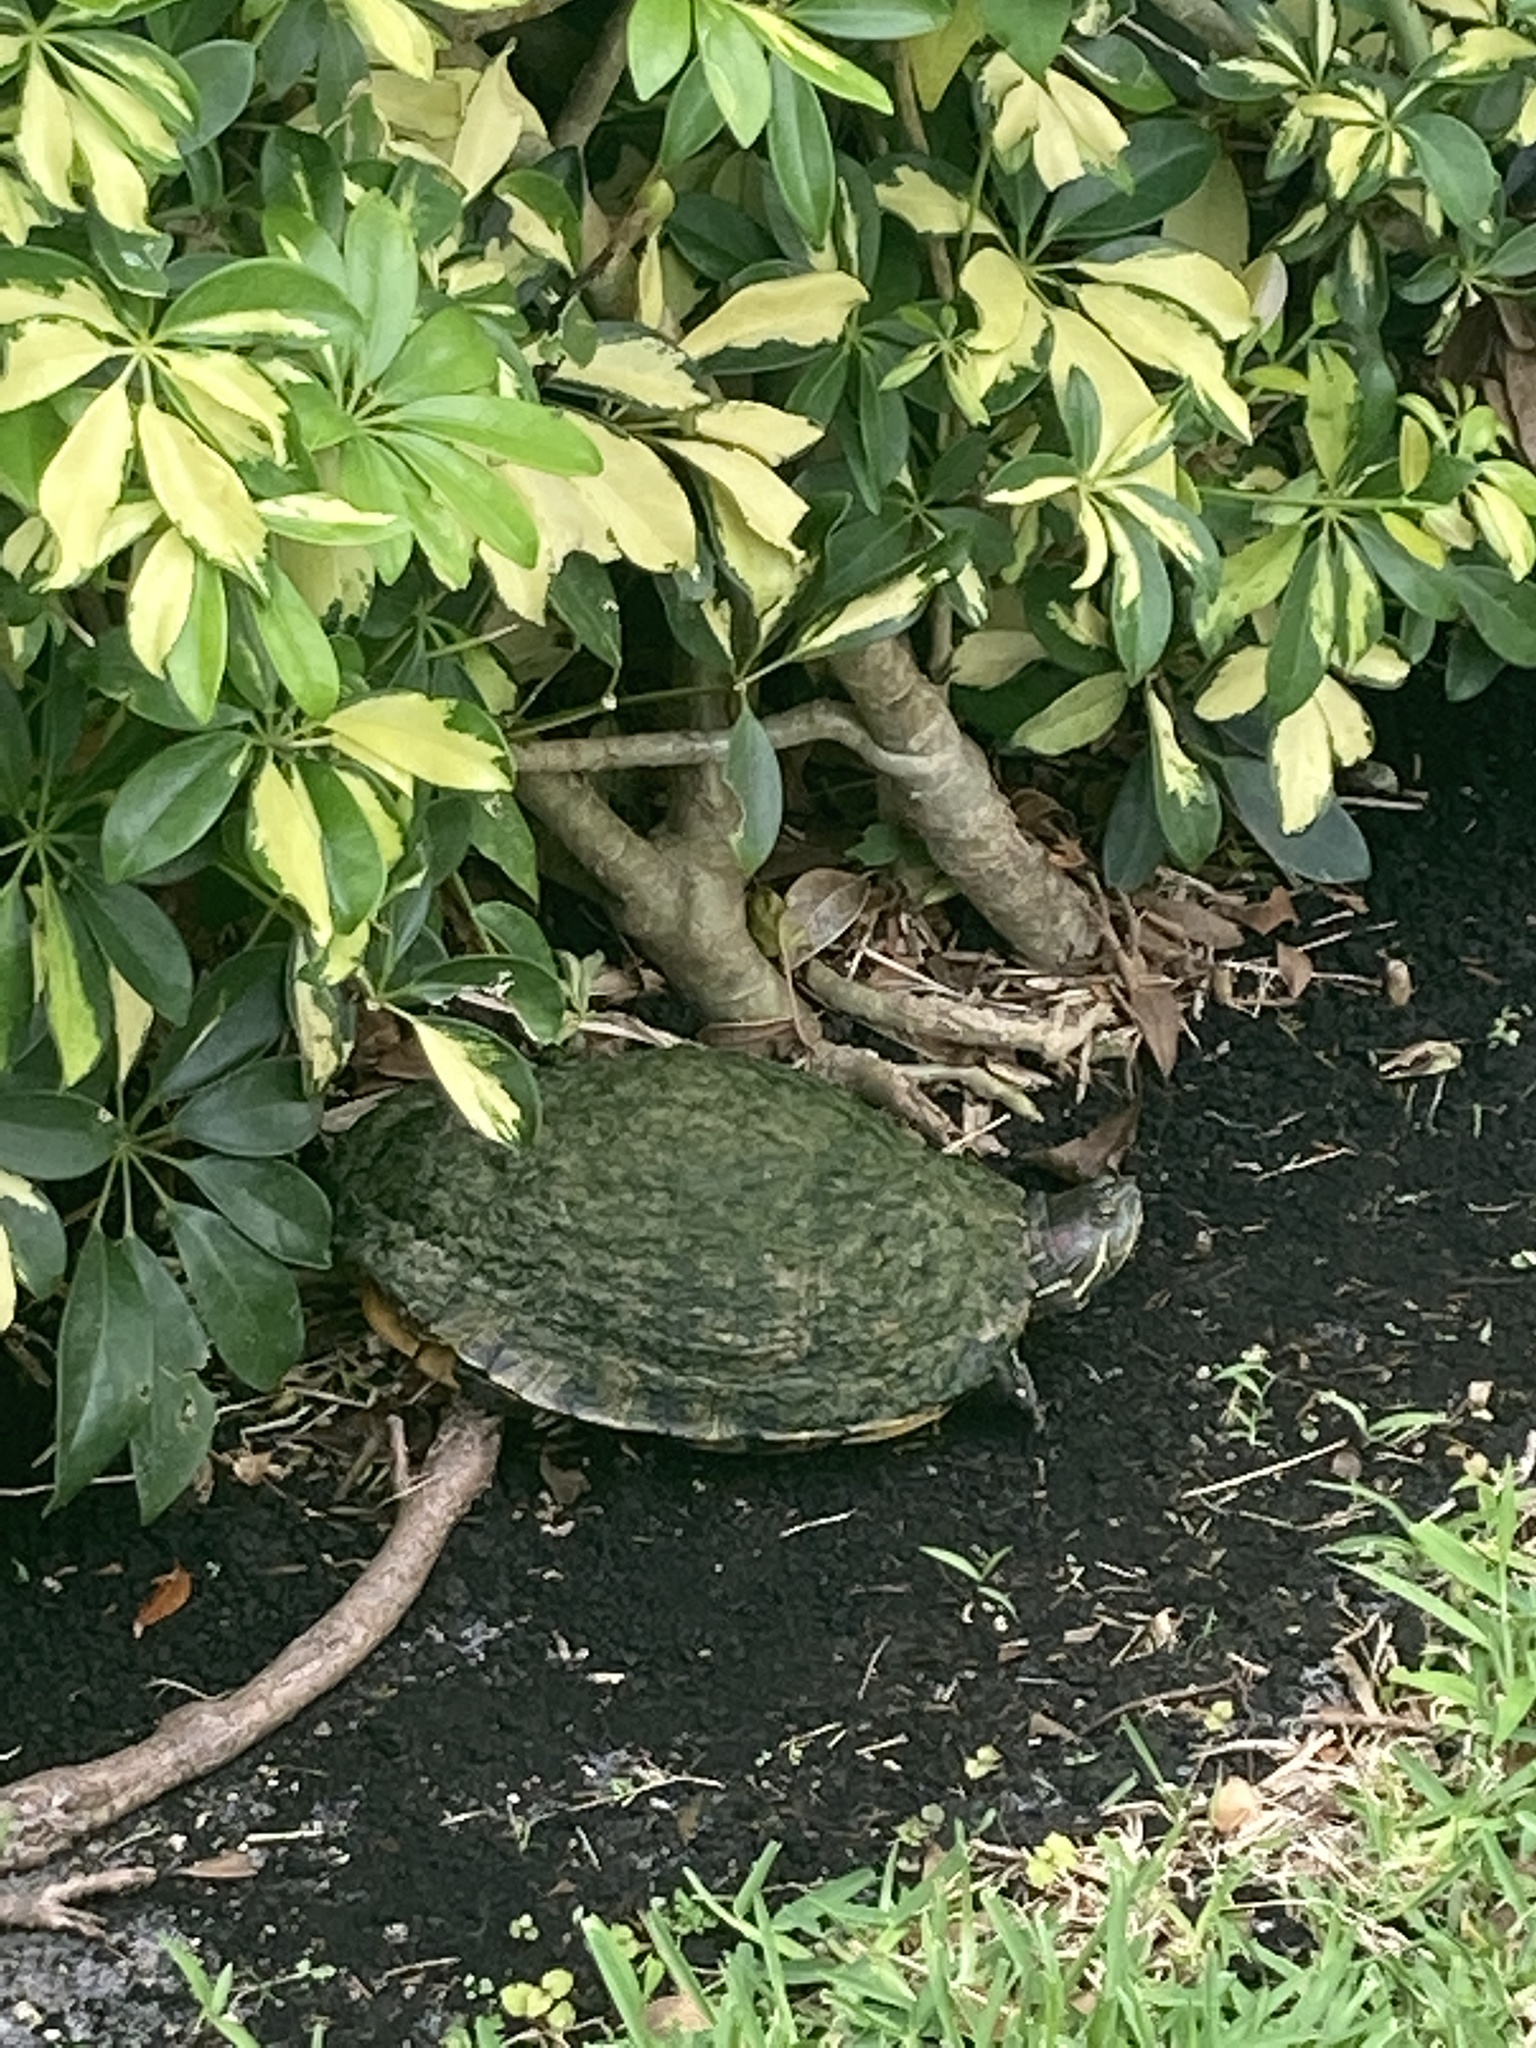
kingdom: Animalia
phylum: Chordata
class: Testudines
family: Emydidae
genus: Trachemys
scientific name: Trachemys scripta
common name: Slider
